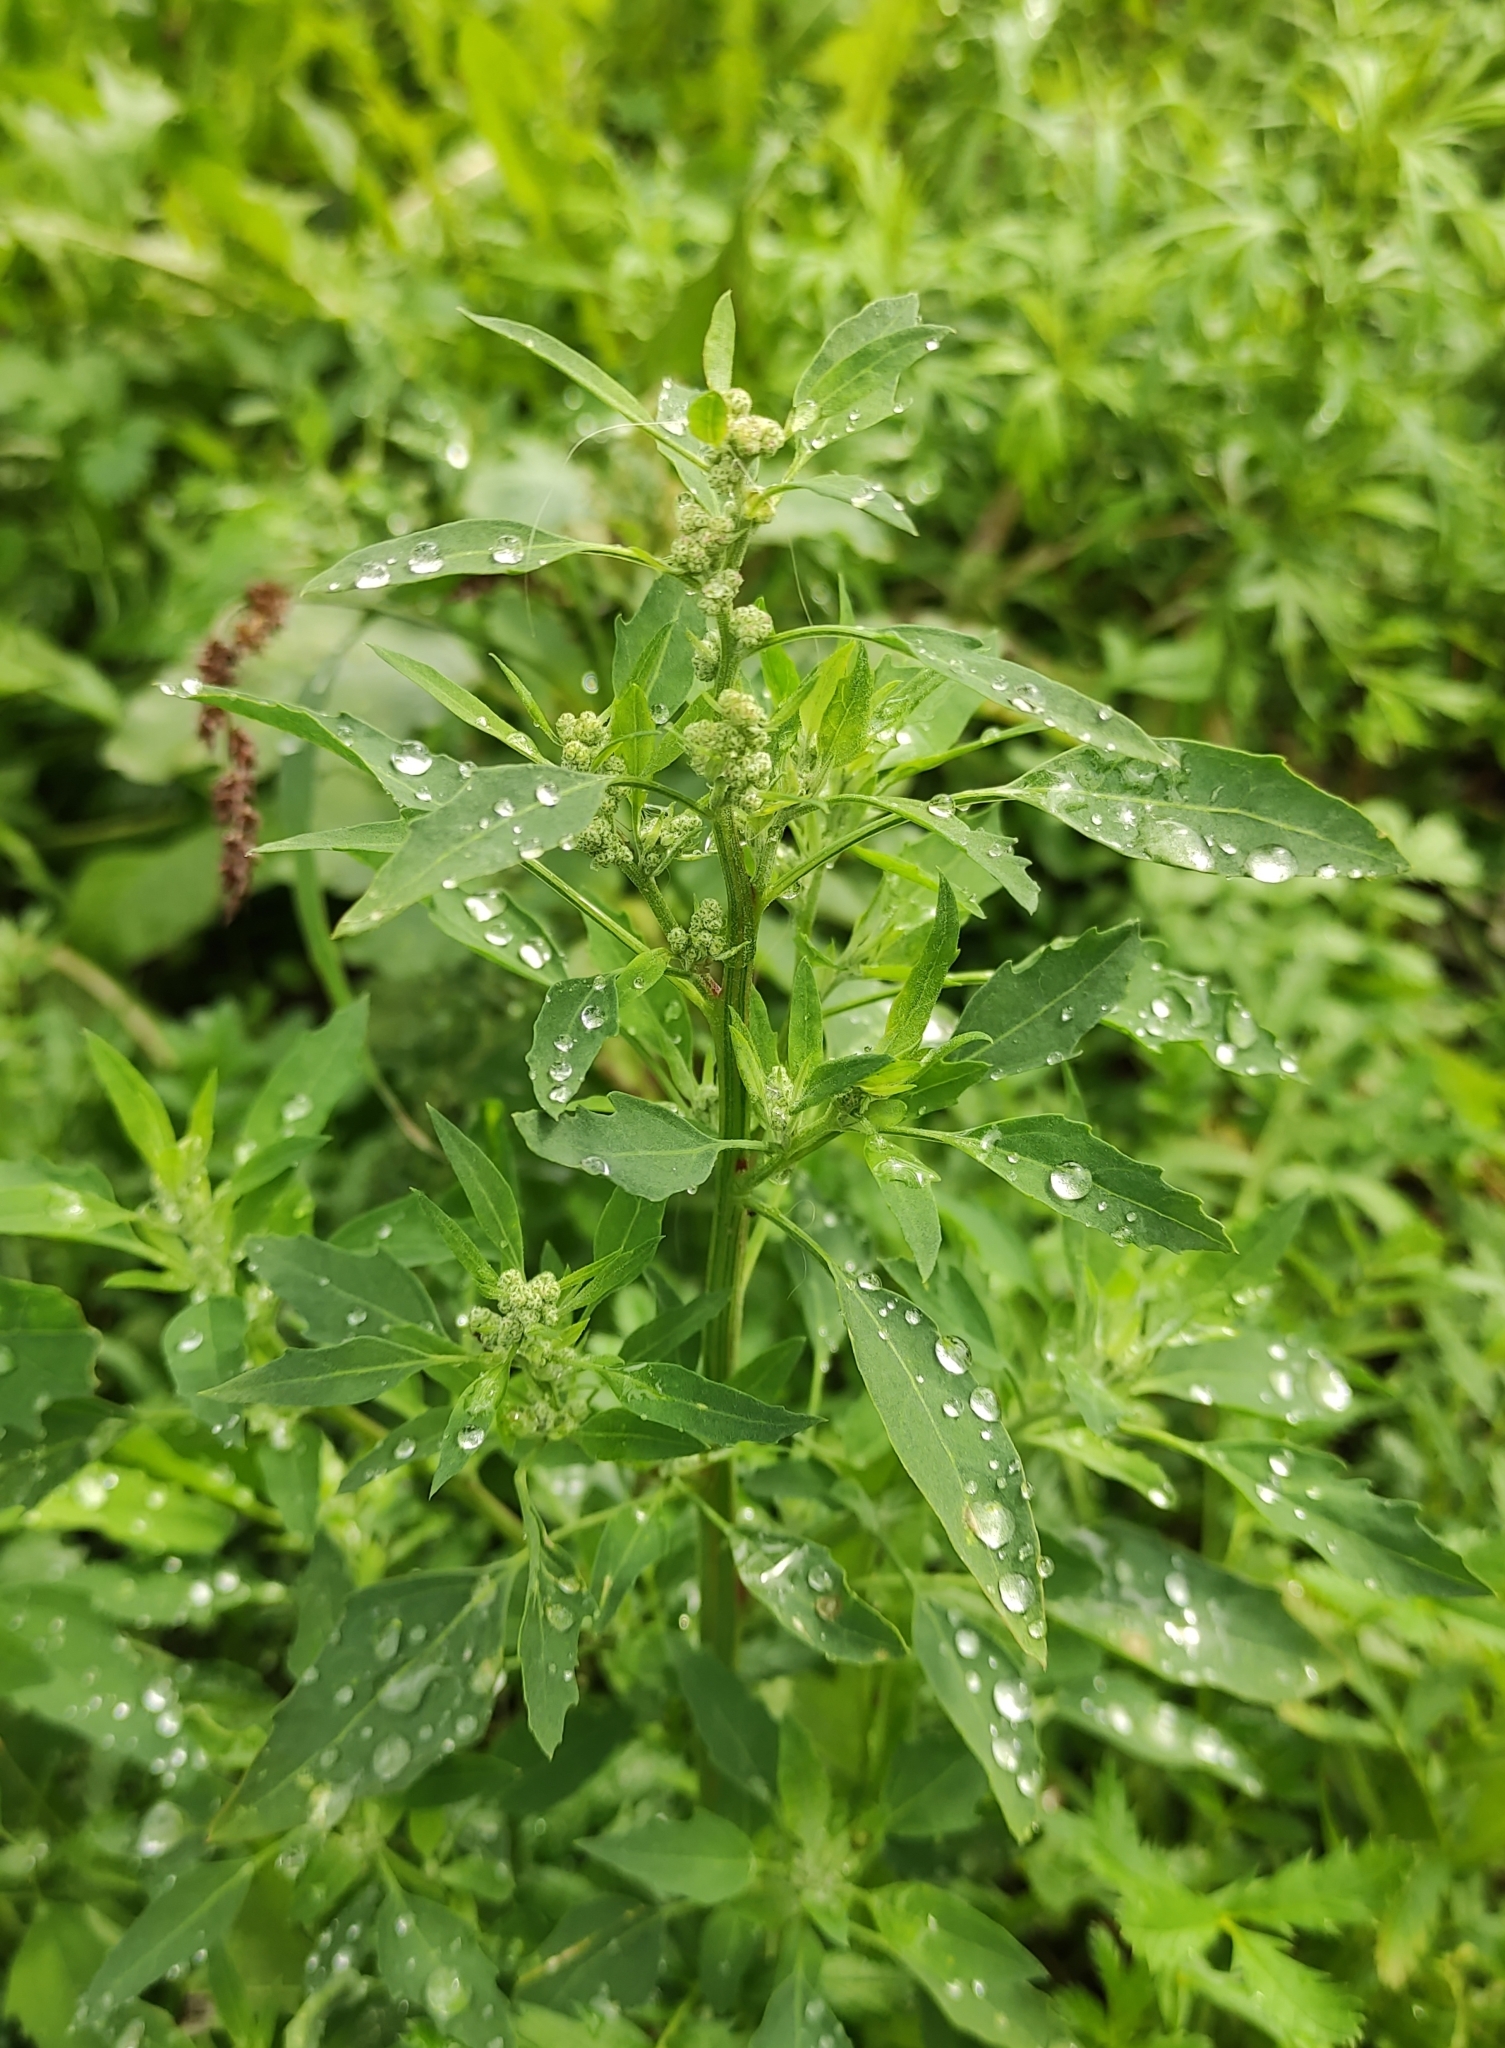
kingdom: Plantae
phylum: Tracheophyta
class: Magnoliopsida
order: Caryophyllales
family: Amaranthaceae
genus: Chenopodium
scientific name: Chenopodium album
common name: Fat-hen
